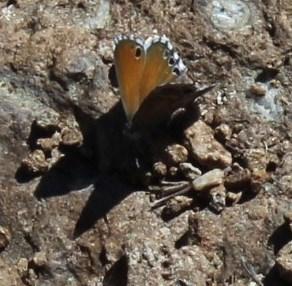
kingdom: Animalia
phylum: Arthropoda
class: Insecta
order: Lepidoptera
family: Lycaenidae
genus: Leptomyrina
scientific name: Leptomyrina lara
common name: Cape black-eye
